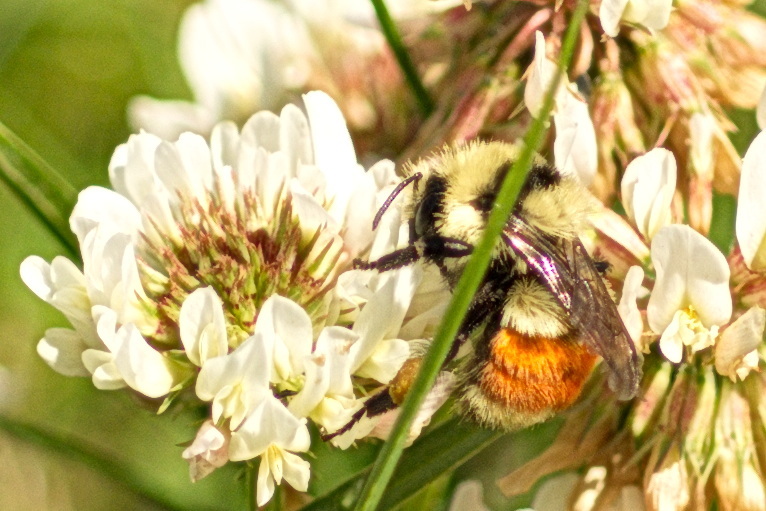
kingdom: Animalia
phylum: Arthropoda
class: Insecta
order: Hymenoptera
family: Apidae
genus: Bombus
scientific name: Bombus huntii
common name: Hunt bumble bee
